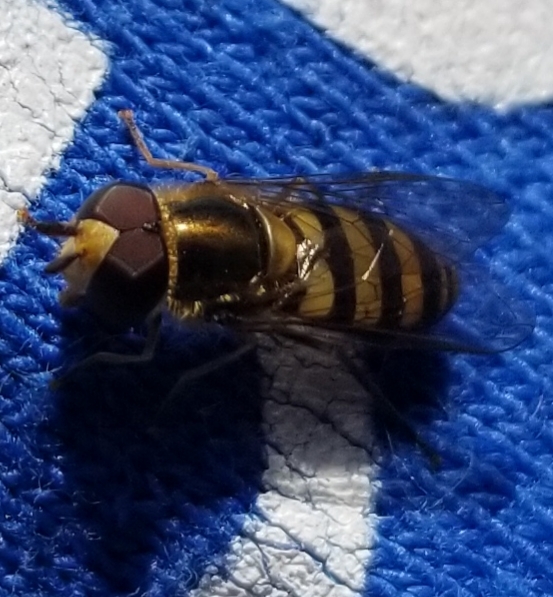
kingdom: Animalia
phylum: Arthropoda
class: Insecta
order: Diptera
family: Syrphidae
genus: Eupeodes
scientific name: Eupeodes
